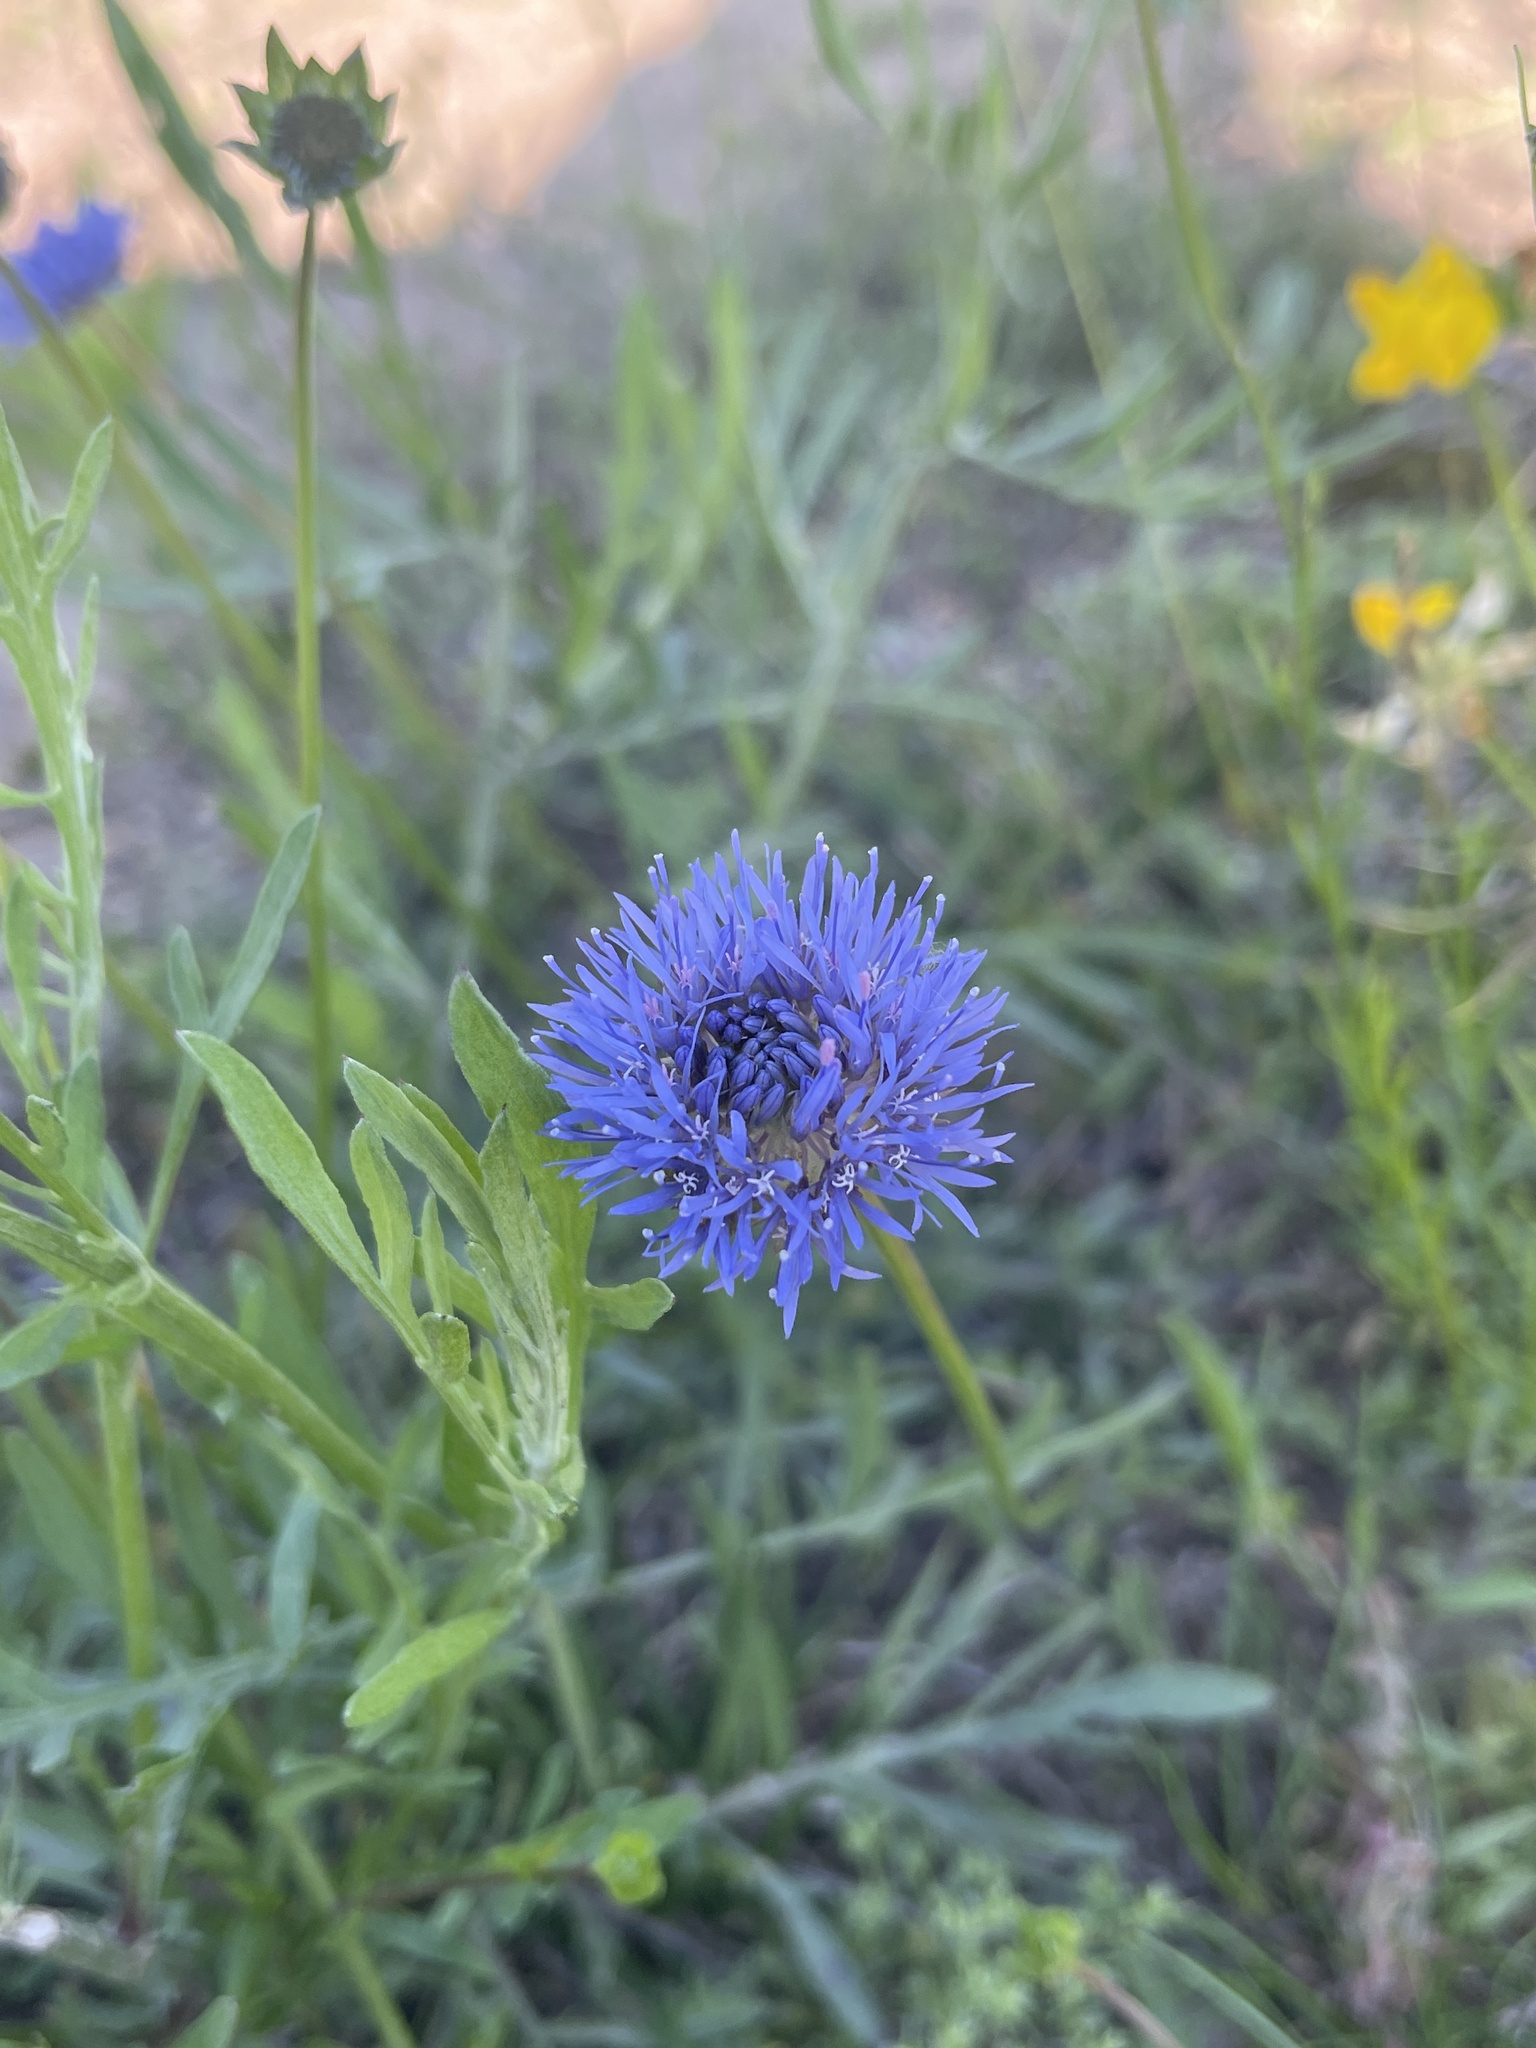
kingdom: Plantae
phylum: Tracheophyta
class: Magnoliopsida
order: Asterales
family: Campanulaceae
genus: Jasione
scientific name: Jasione montana
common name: Sheep's-bit
